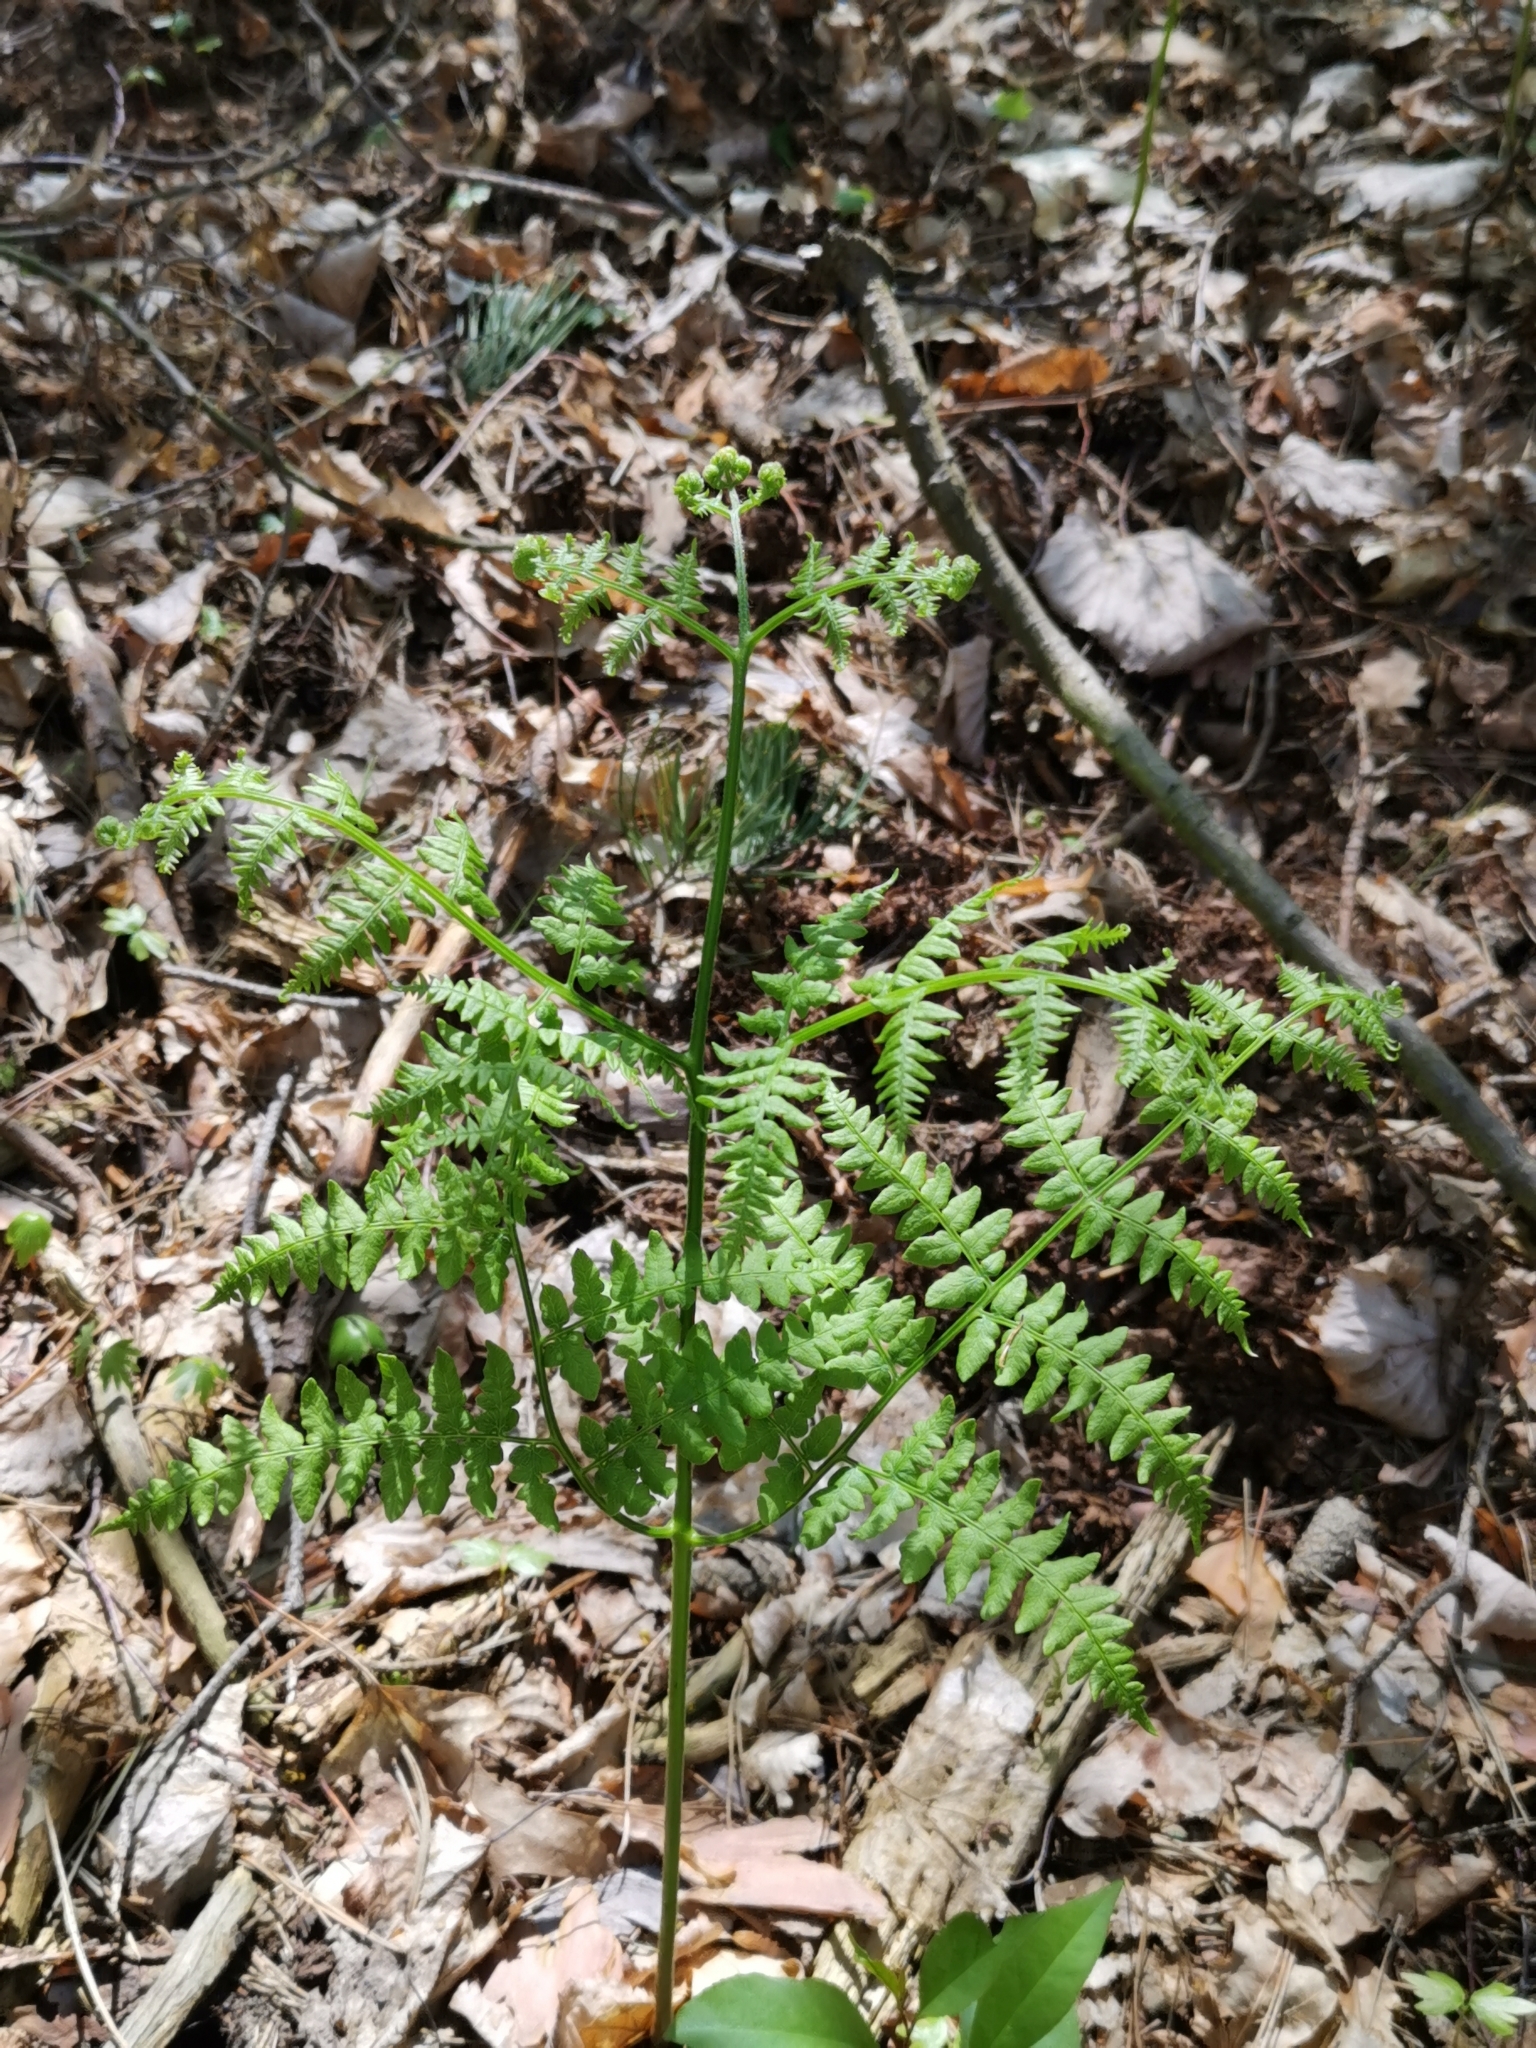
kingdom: Plantae
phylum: Tracheophyta
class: Polypodiopsida
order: Polypodiales
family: Dennstaedtiaceae
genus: Pteridium
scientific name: Pteridium aquilinum
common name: Bracken
